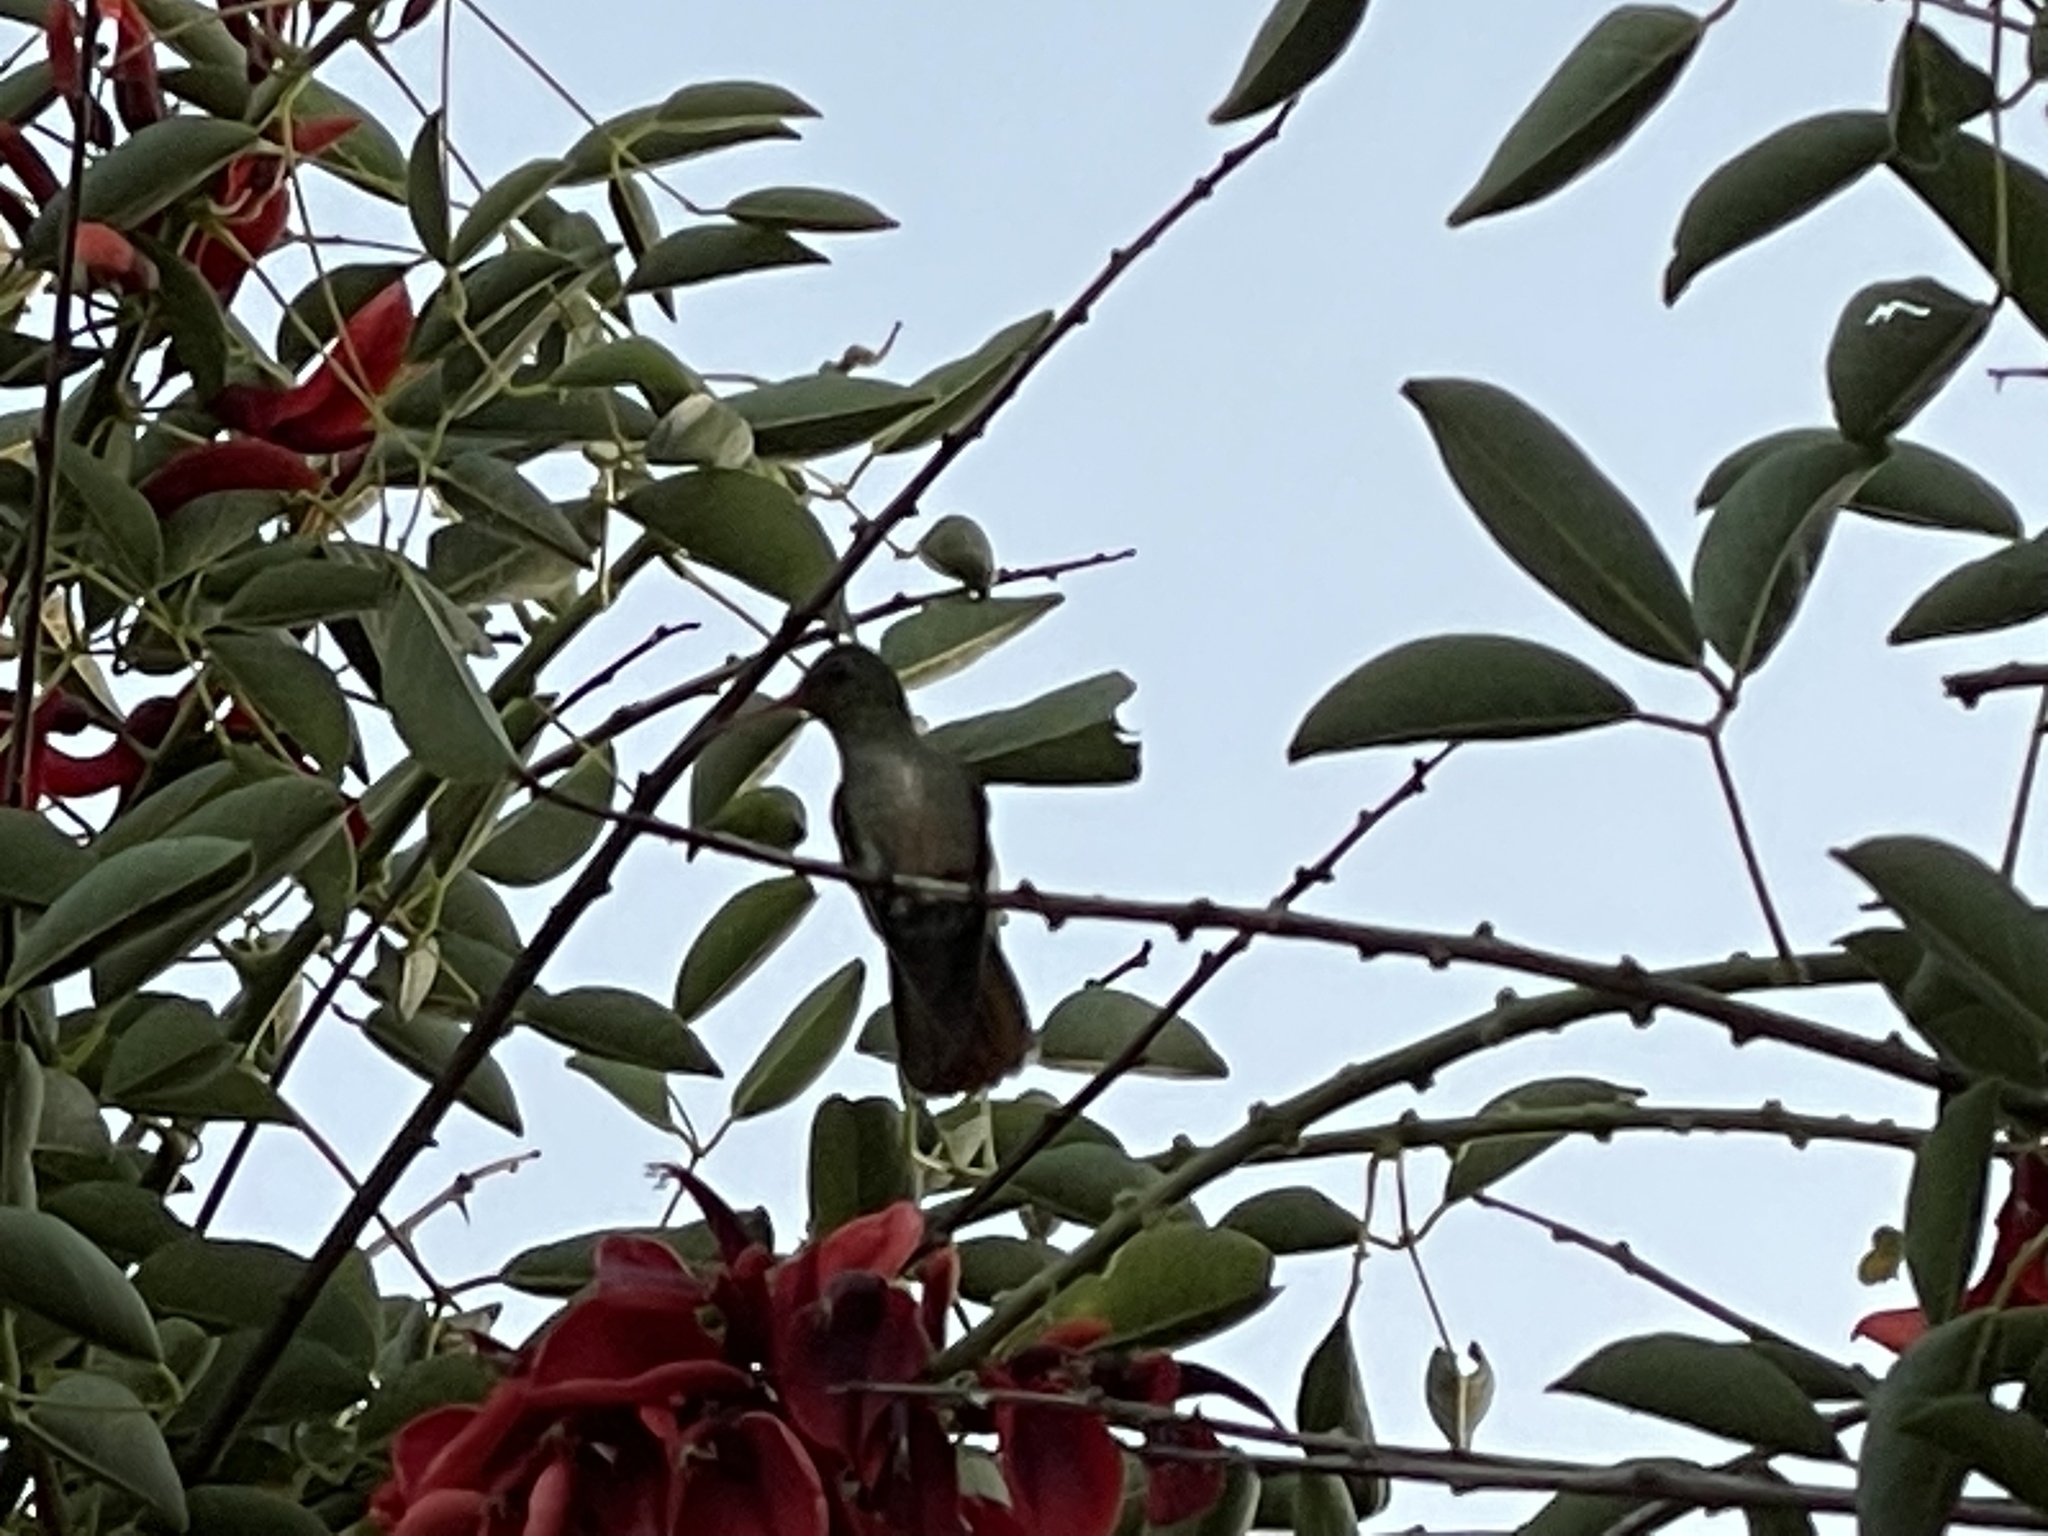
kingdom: Animalia
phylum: Chordata
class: Aves
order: Apodiformes
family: Trochilidae
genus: Hylocharis
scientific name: Hylocharis chrysura
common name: Gilded sapphire
